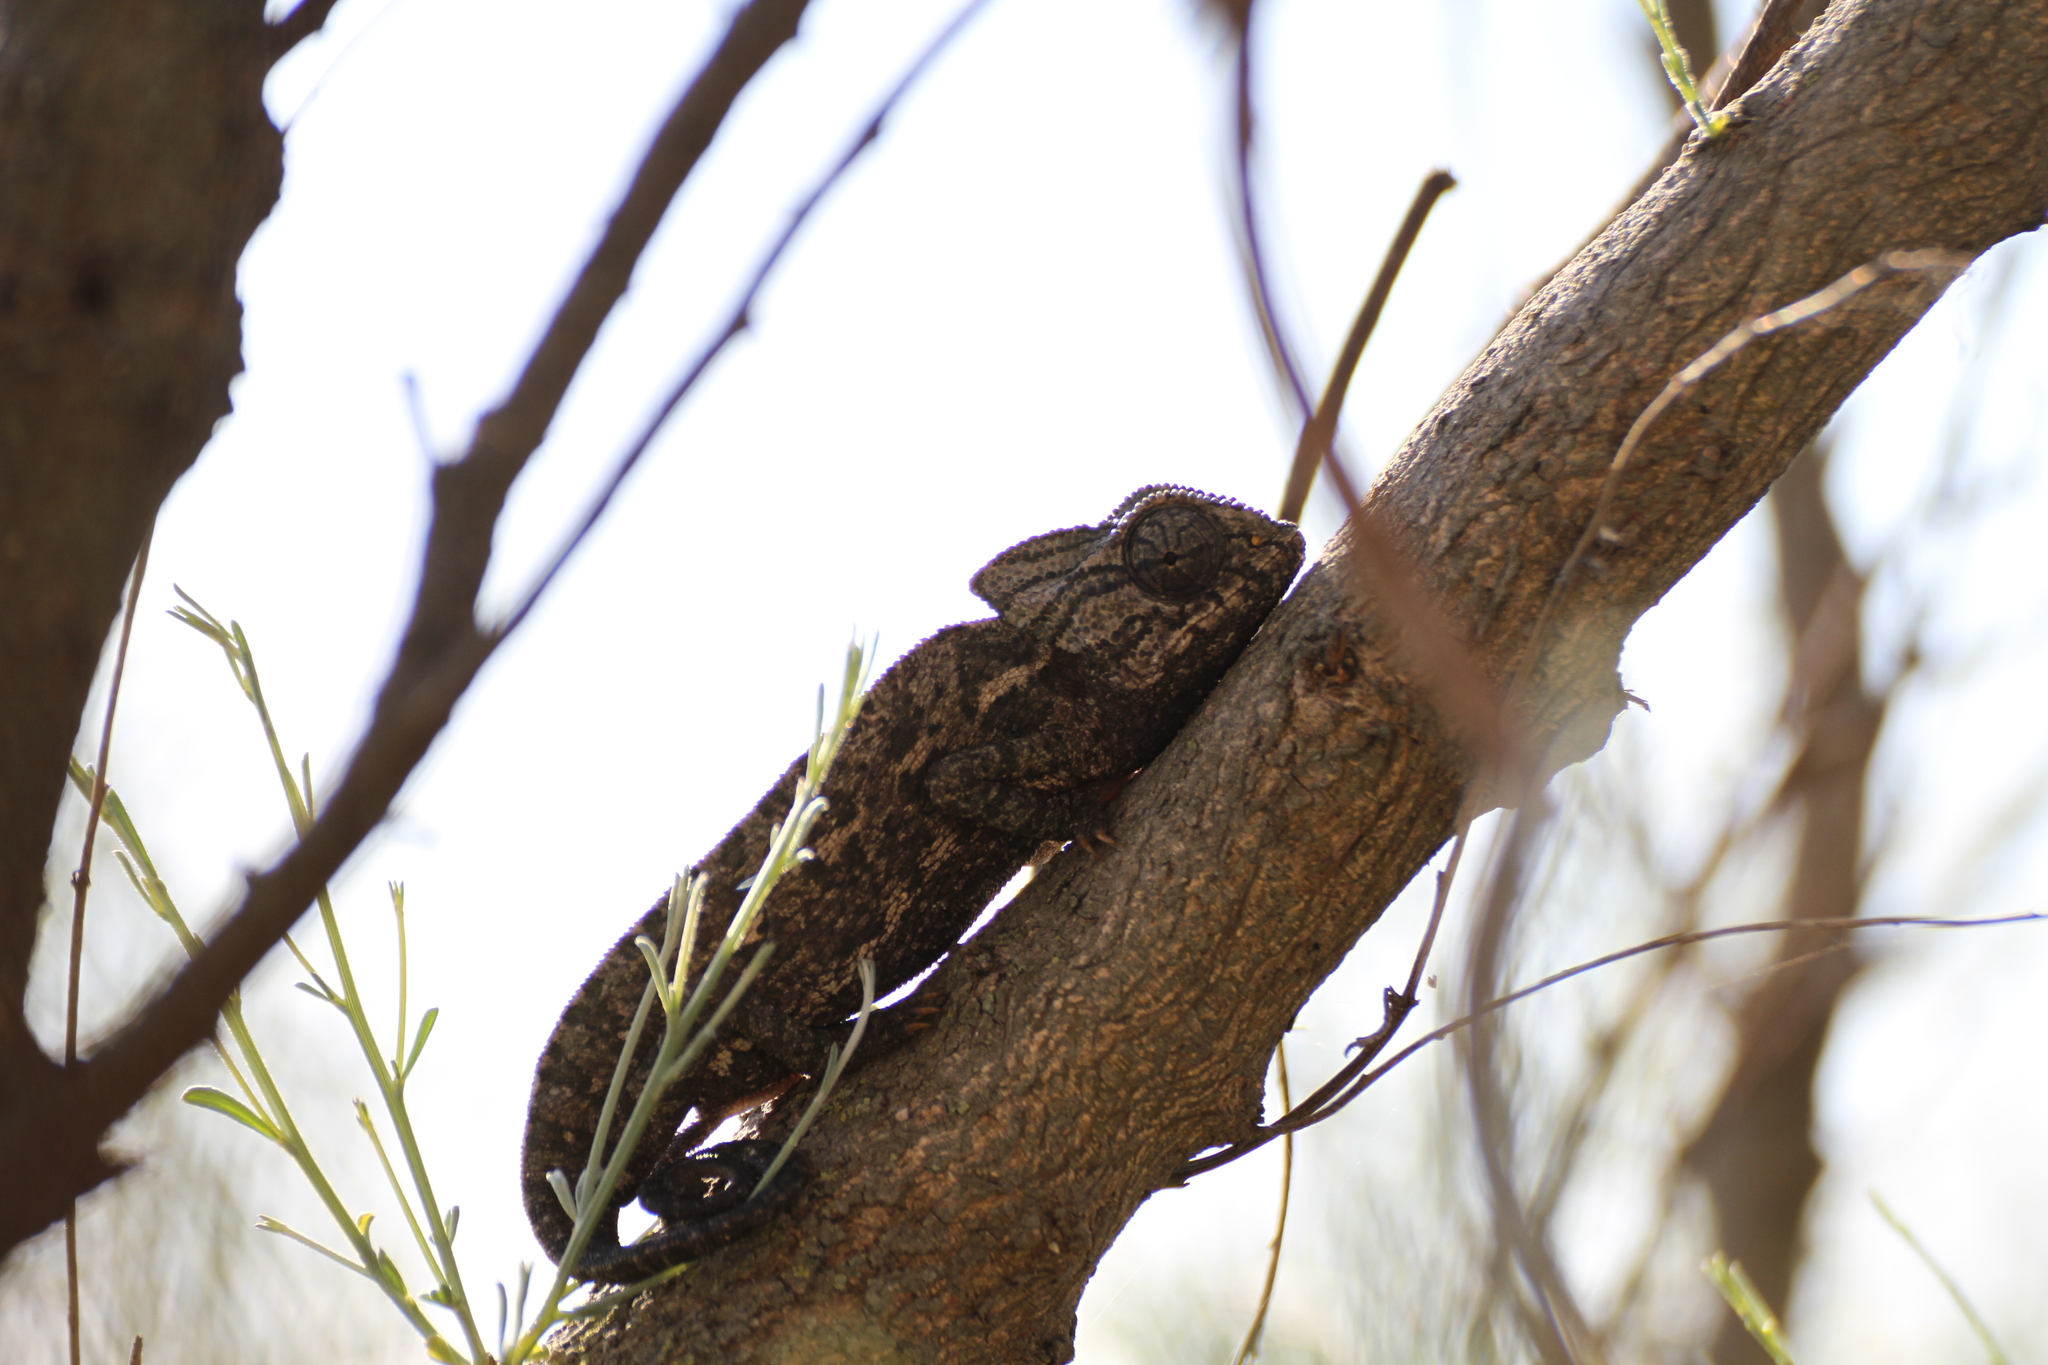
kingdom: Animalia
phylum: Chordata
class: Squamata
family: Chamaeleonidae
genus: Chamaeleo
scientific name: Chamaeleo chamaeleon
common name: Mediterranean chameleon
